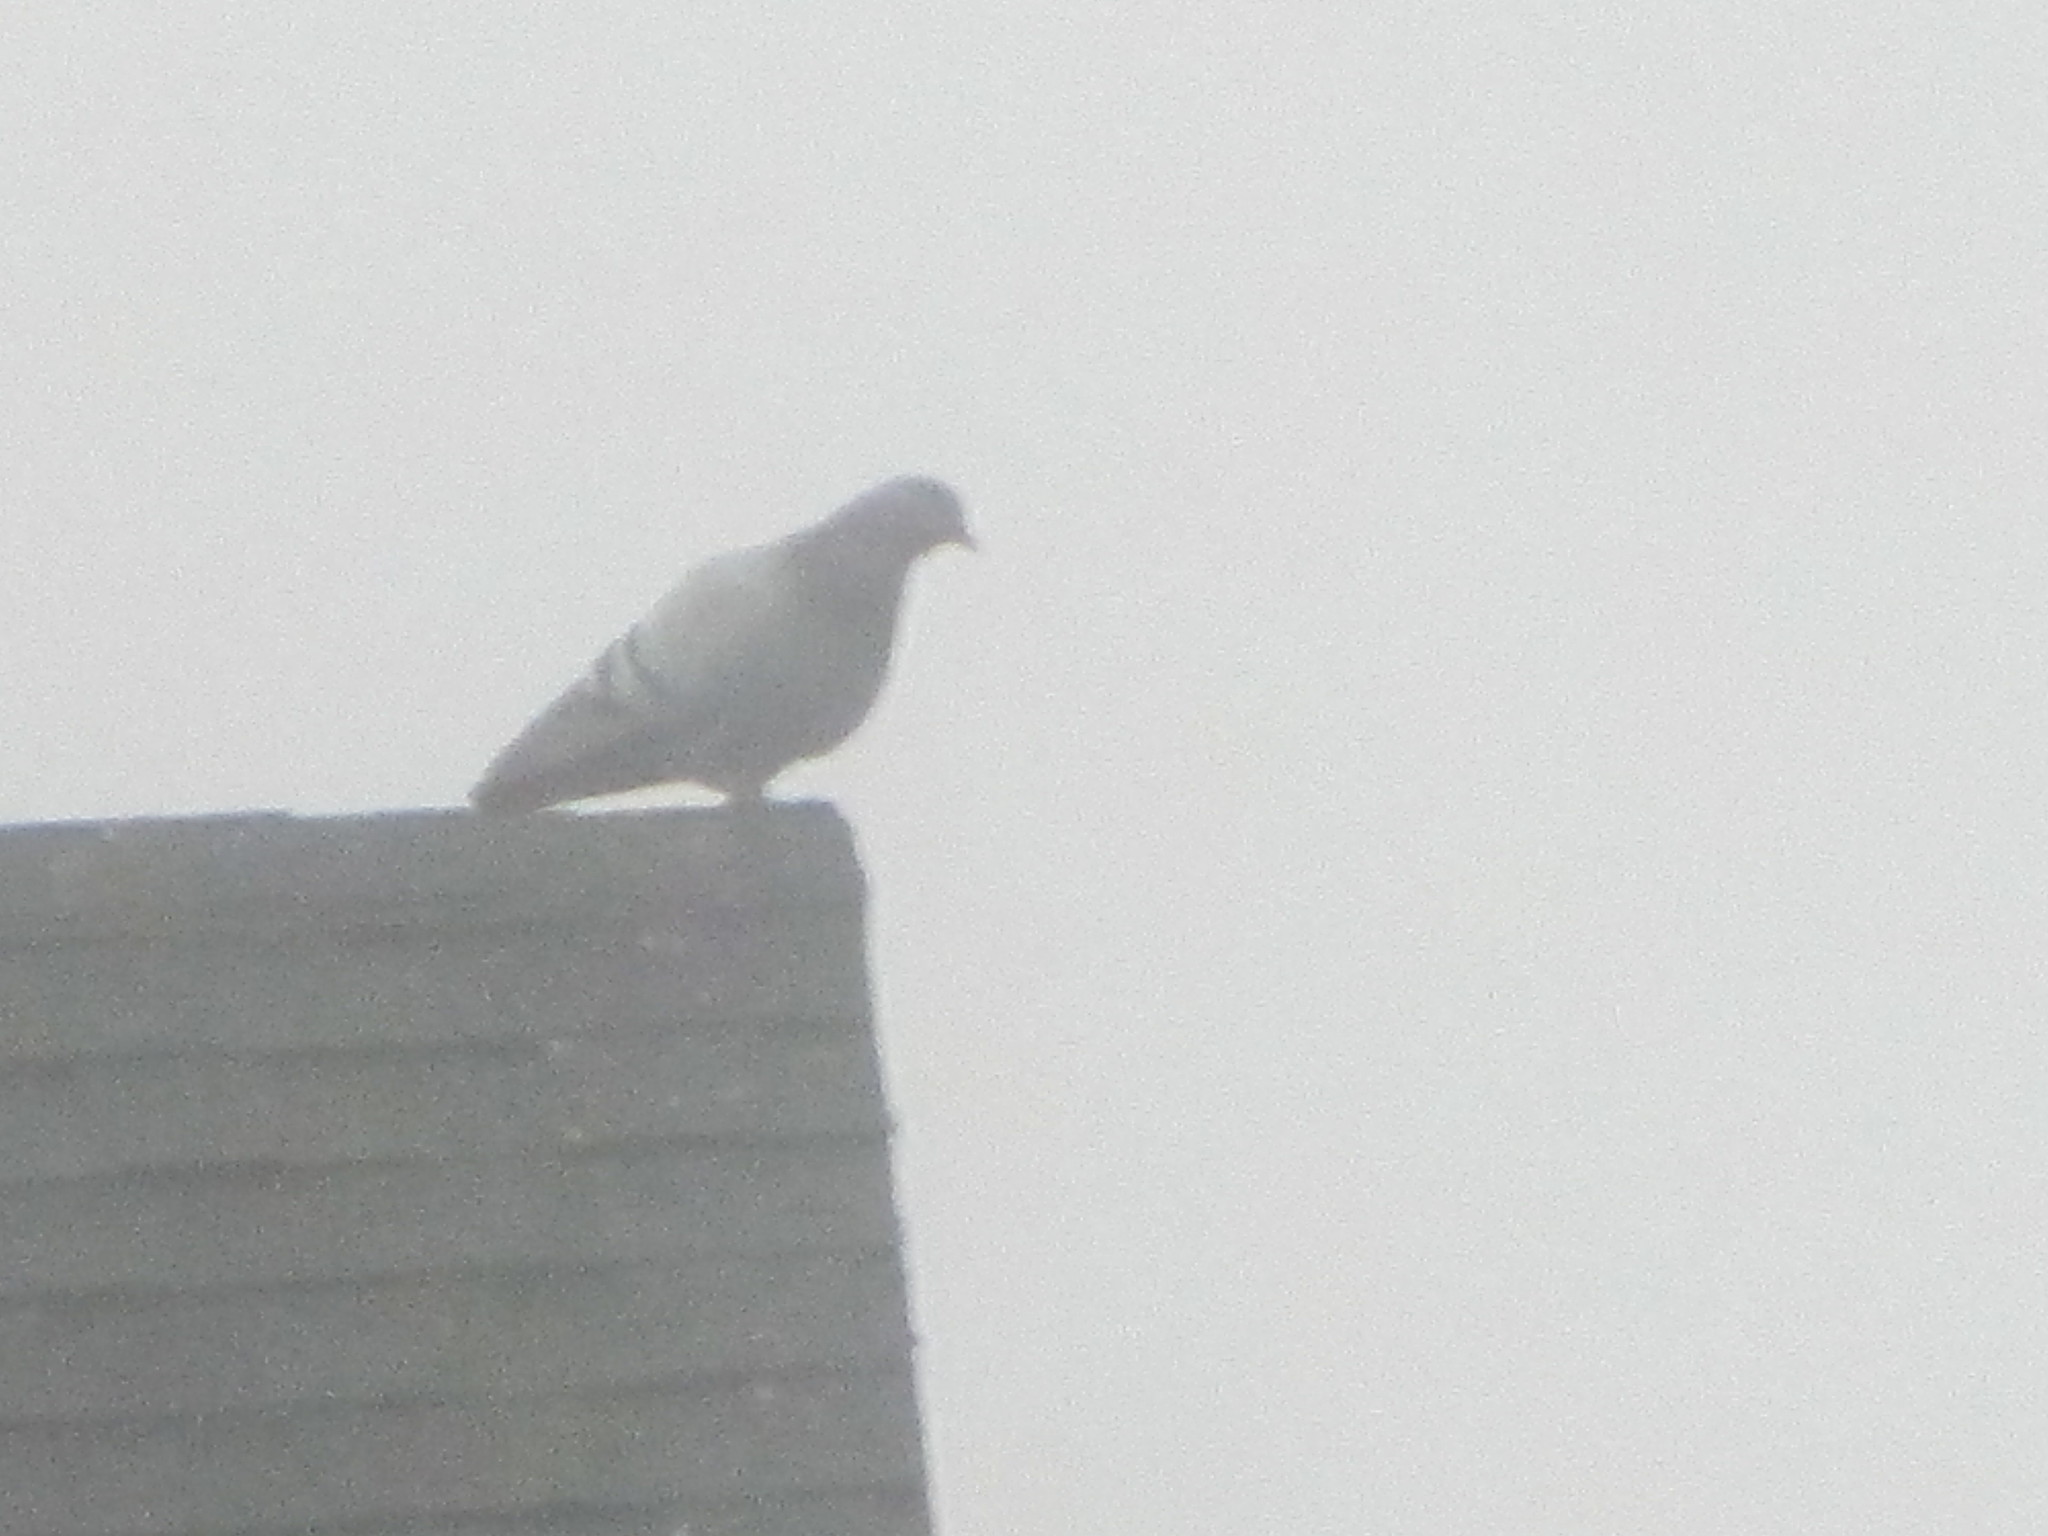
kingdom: Animalia
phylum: Chordata
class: Aves
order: Columbiformes
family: Columbidae
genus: Columba
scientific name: Columba livia
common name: Rock pigeon
